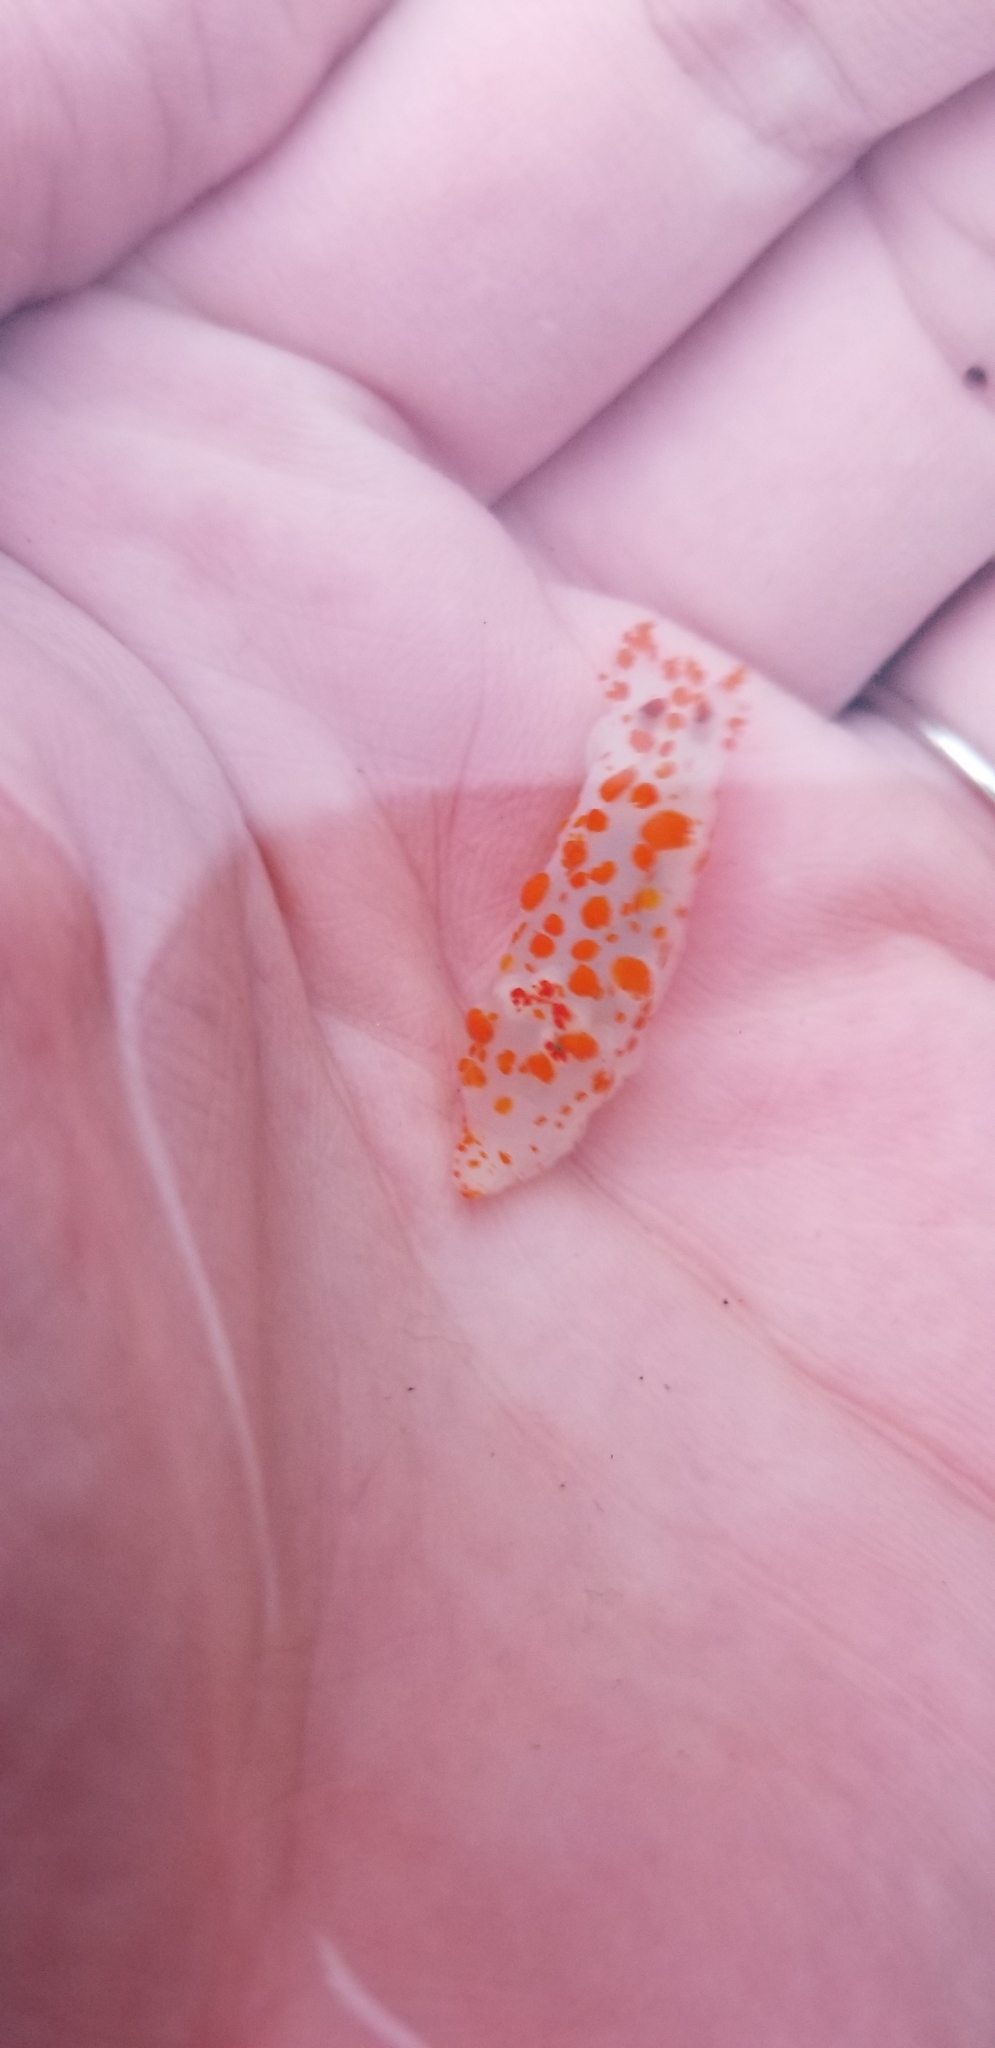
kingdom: Animalia
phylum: Mollusca
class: Gastropoda
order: Nudibranchia
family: Polyceridae
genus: Triopha
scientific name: Triopha catalinae
